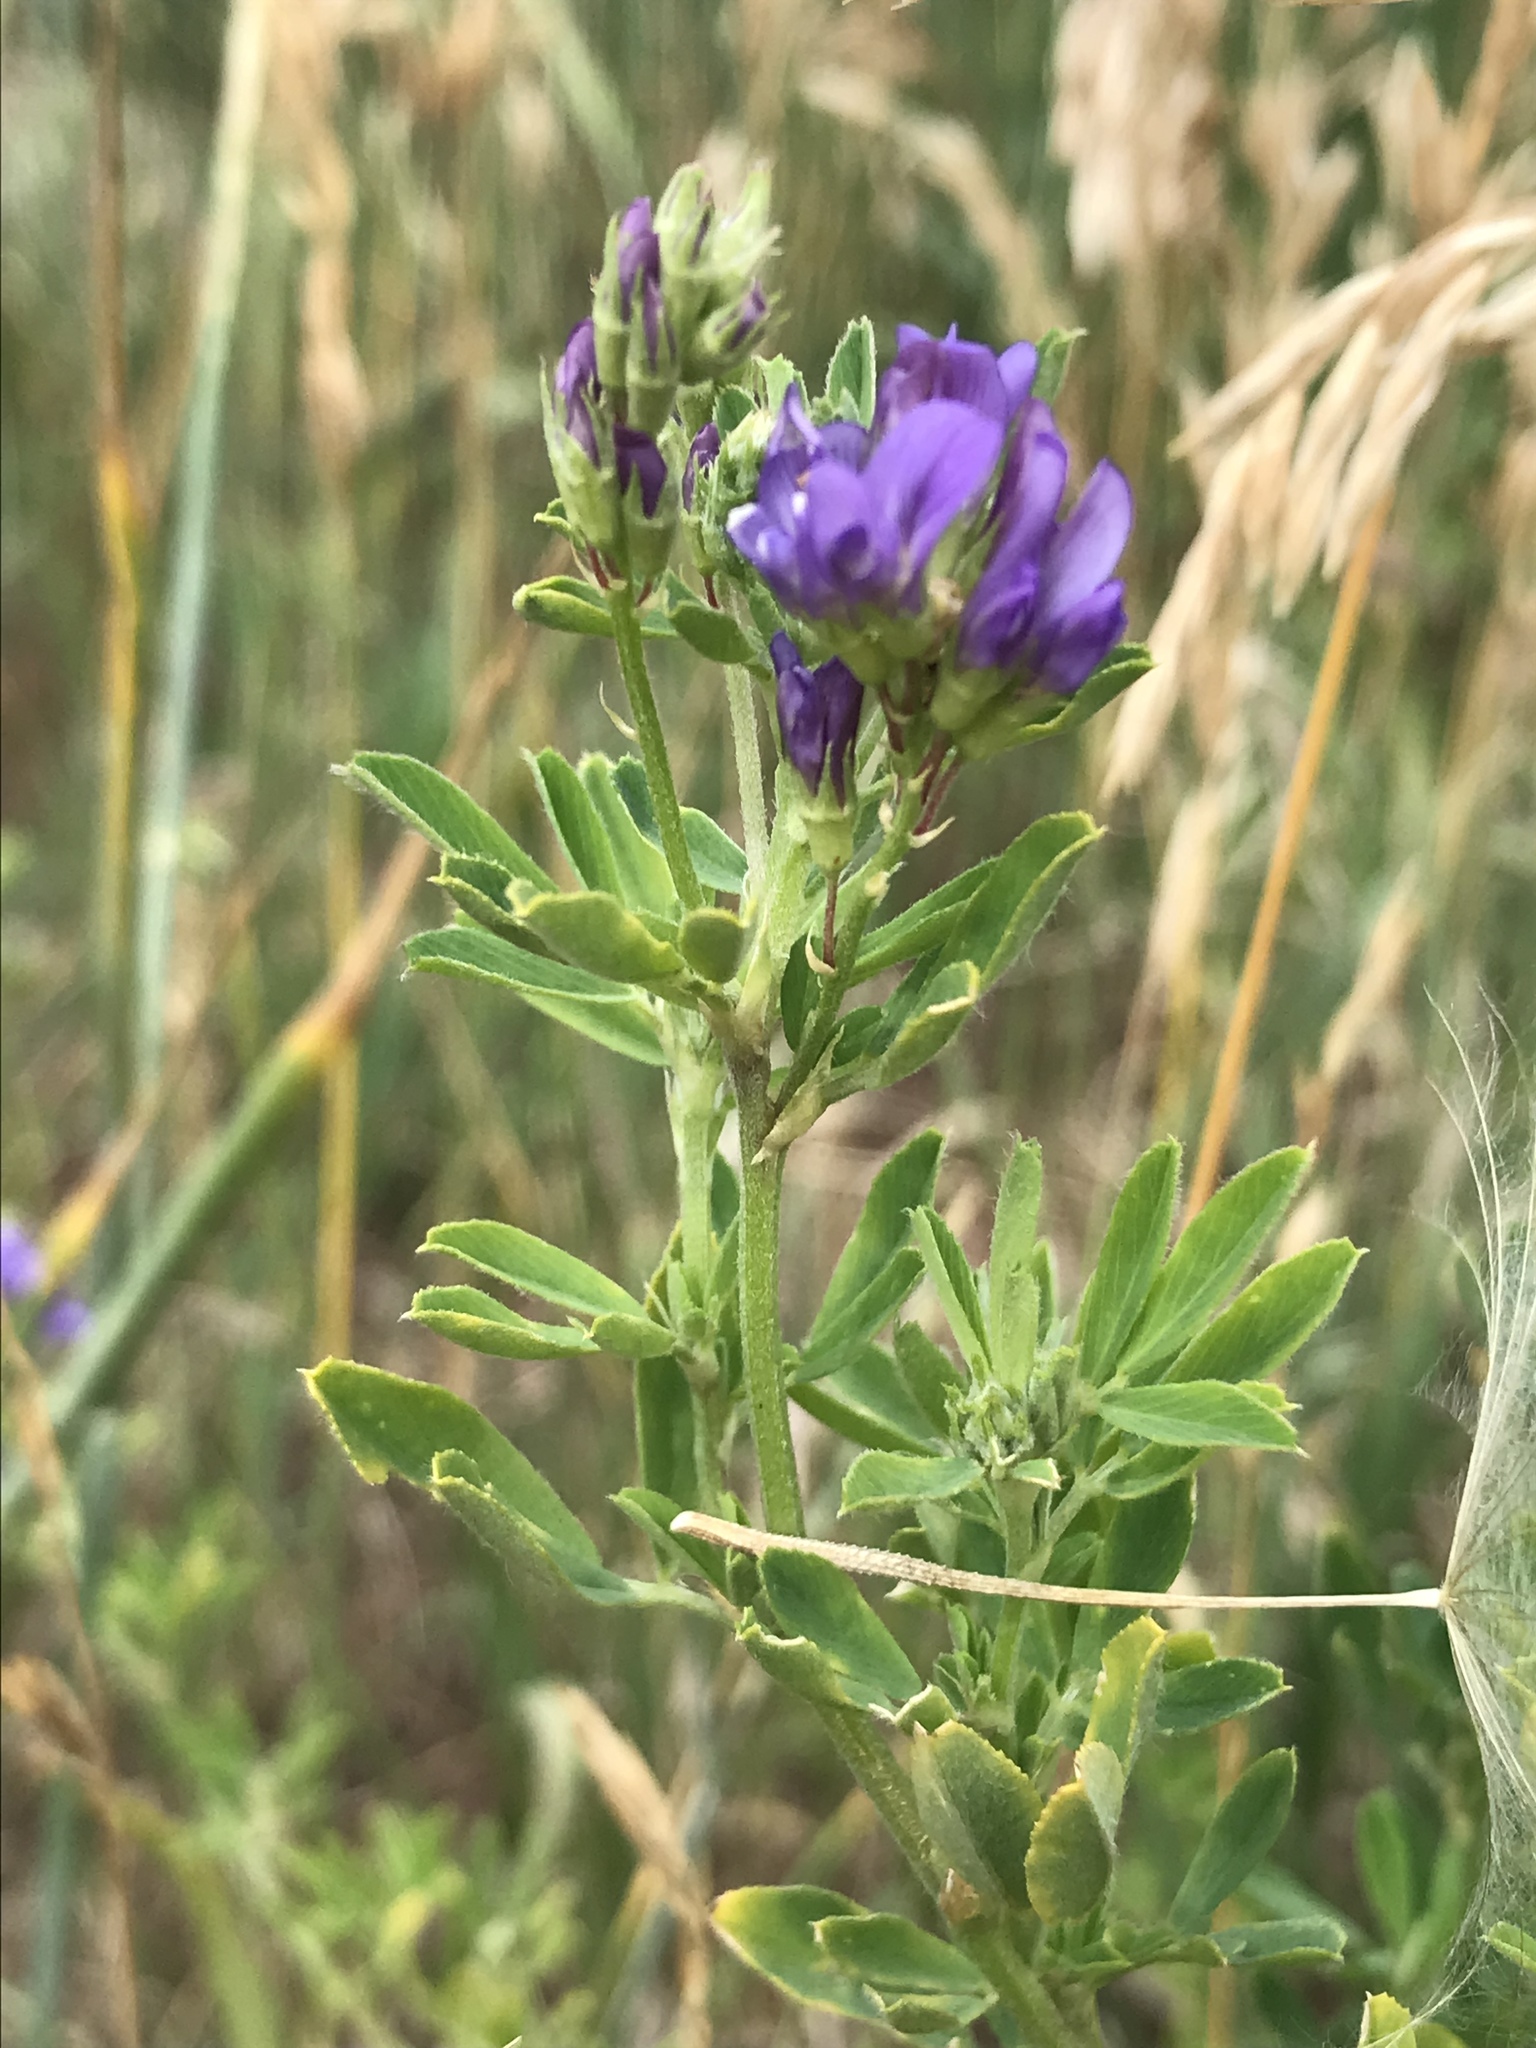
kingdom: Plantae
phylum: Tracheophyta
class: Magnoliopsida
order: Fabales
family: Fabaceae
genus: Medicago
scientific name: Medicago sativa
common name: Alfalfa
